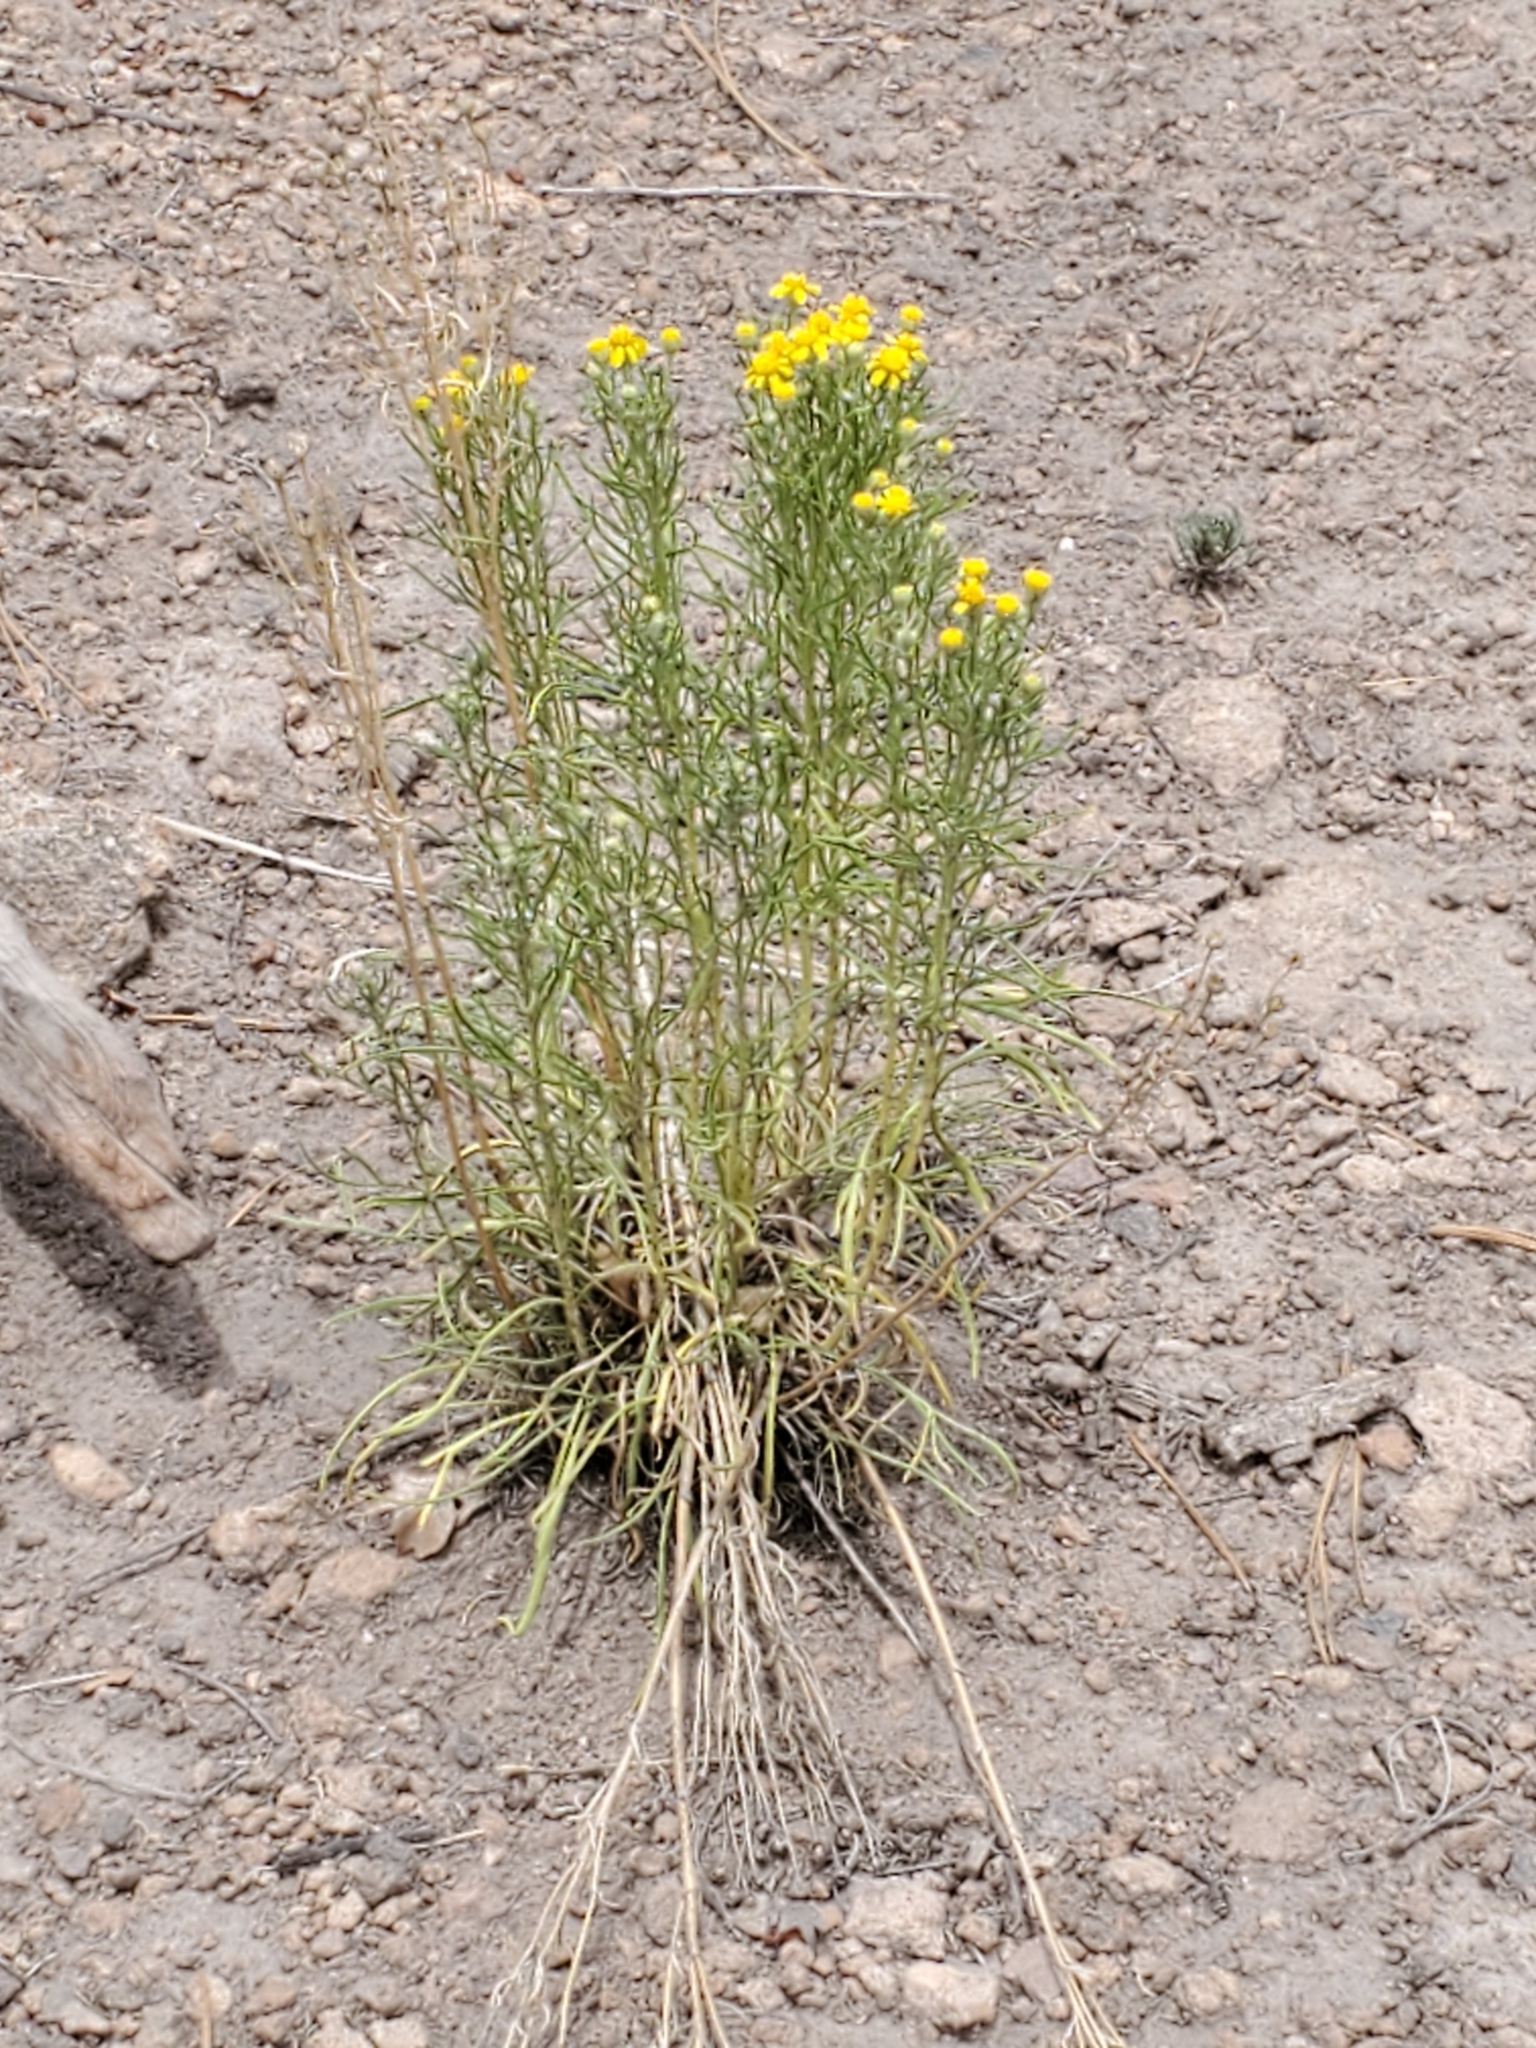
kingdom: Plantae
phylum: Tracheophyta
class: Magnoliopsida
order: Asterales
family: Asteraceae
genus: Hymenoxys
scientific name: Hymenoxys richardsonii
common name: Pingue rubberweed
